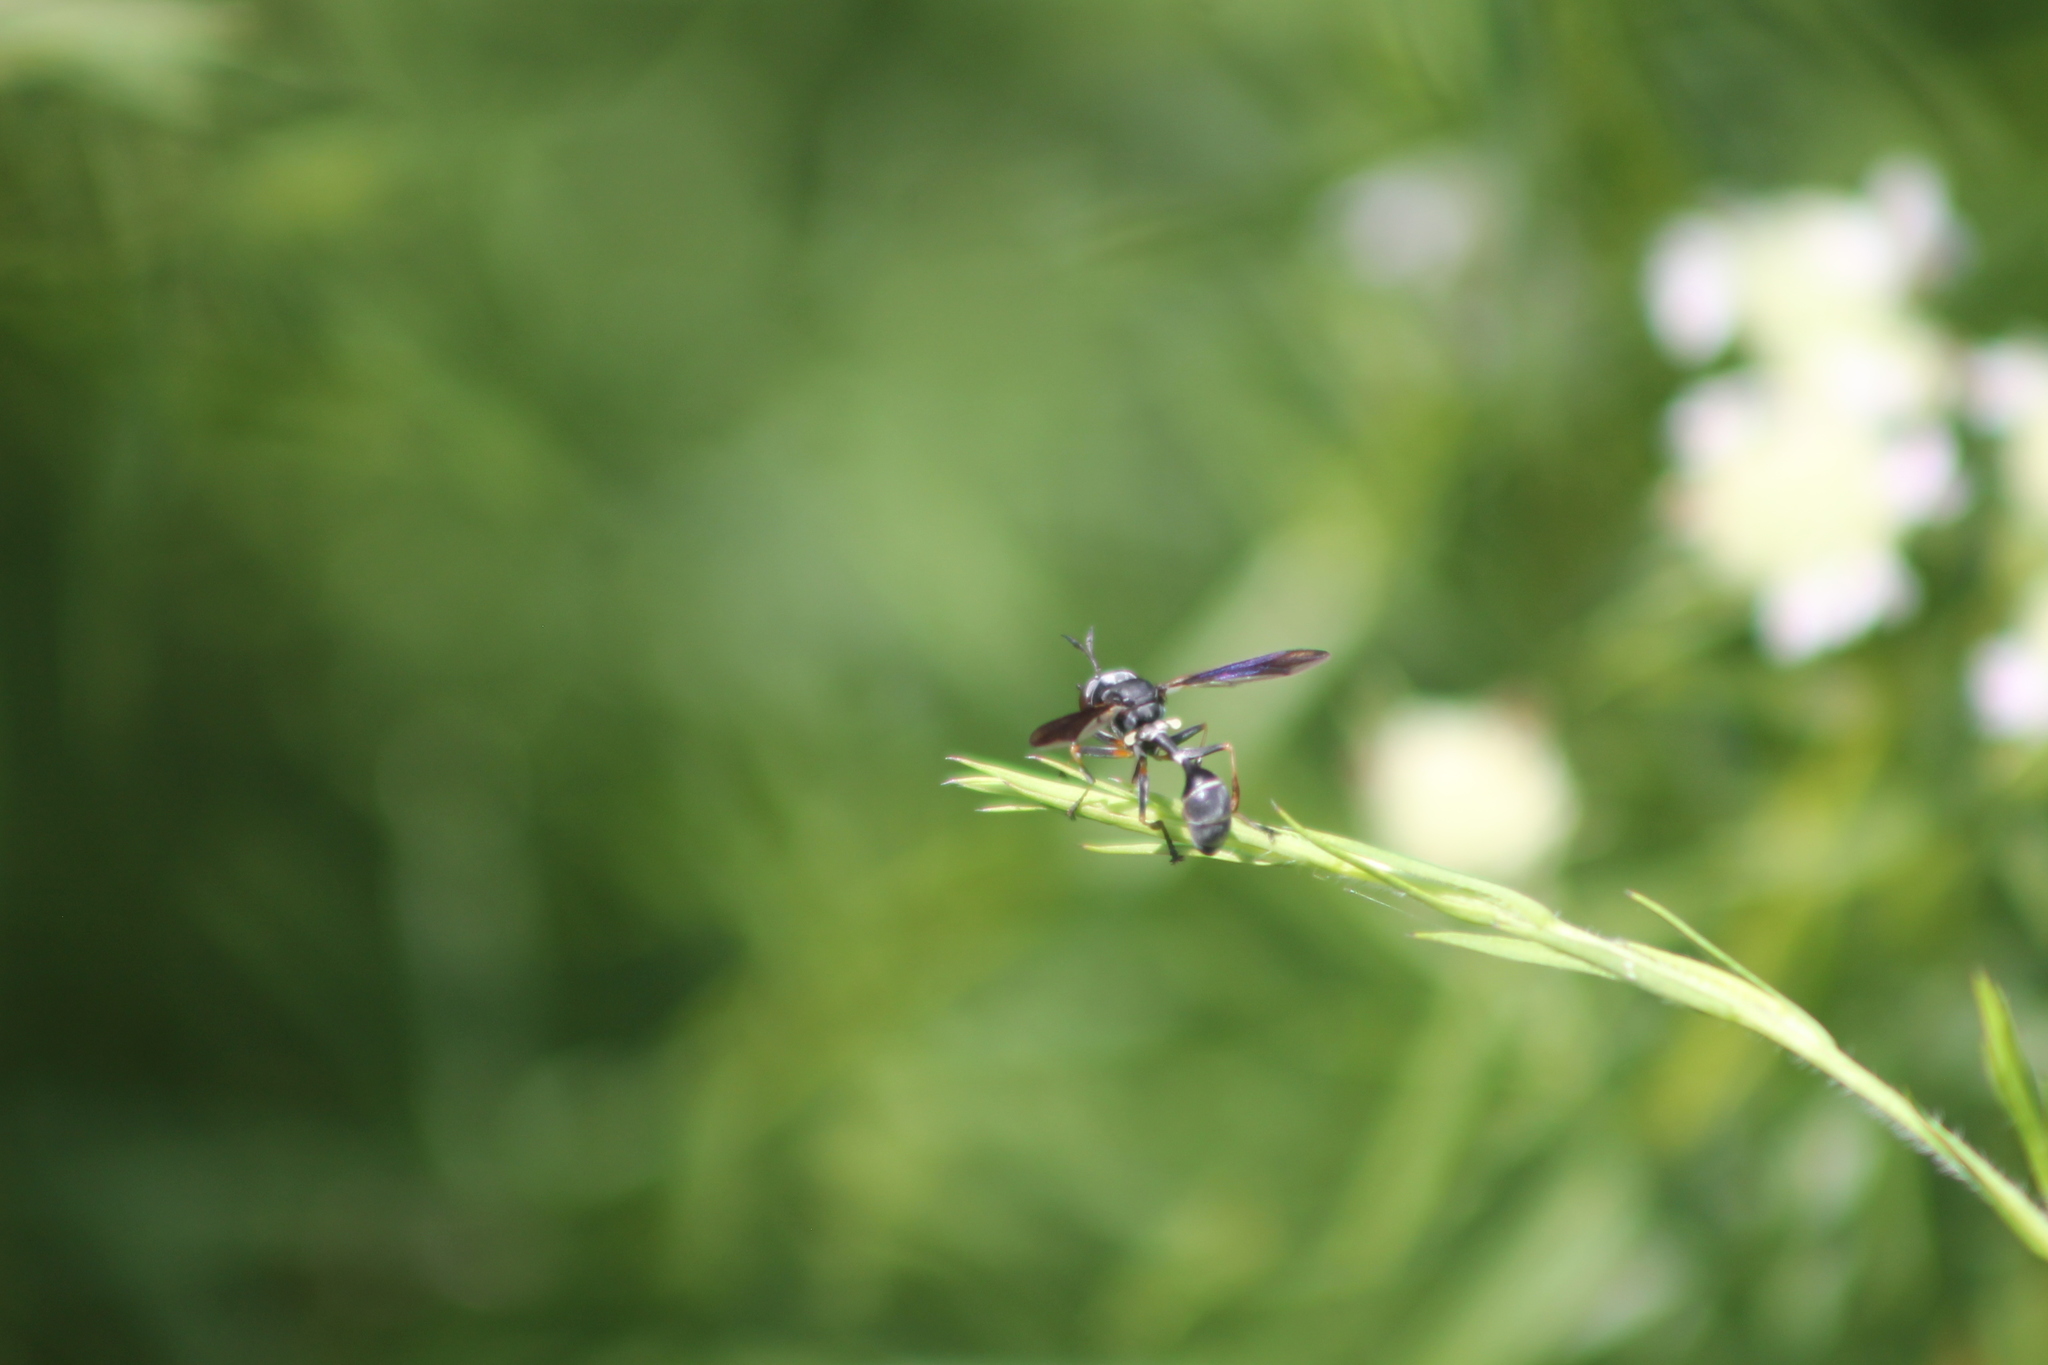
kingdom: Animalia
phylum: Arthropoda
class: Insecta
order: Diptera
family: Conopidae
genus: Physocephala
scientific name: Physocephala tibialis
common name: Common eastern physocephala
